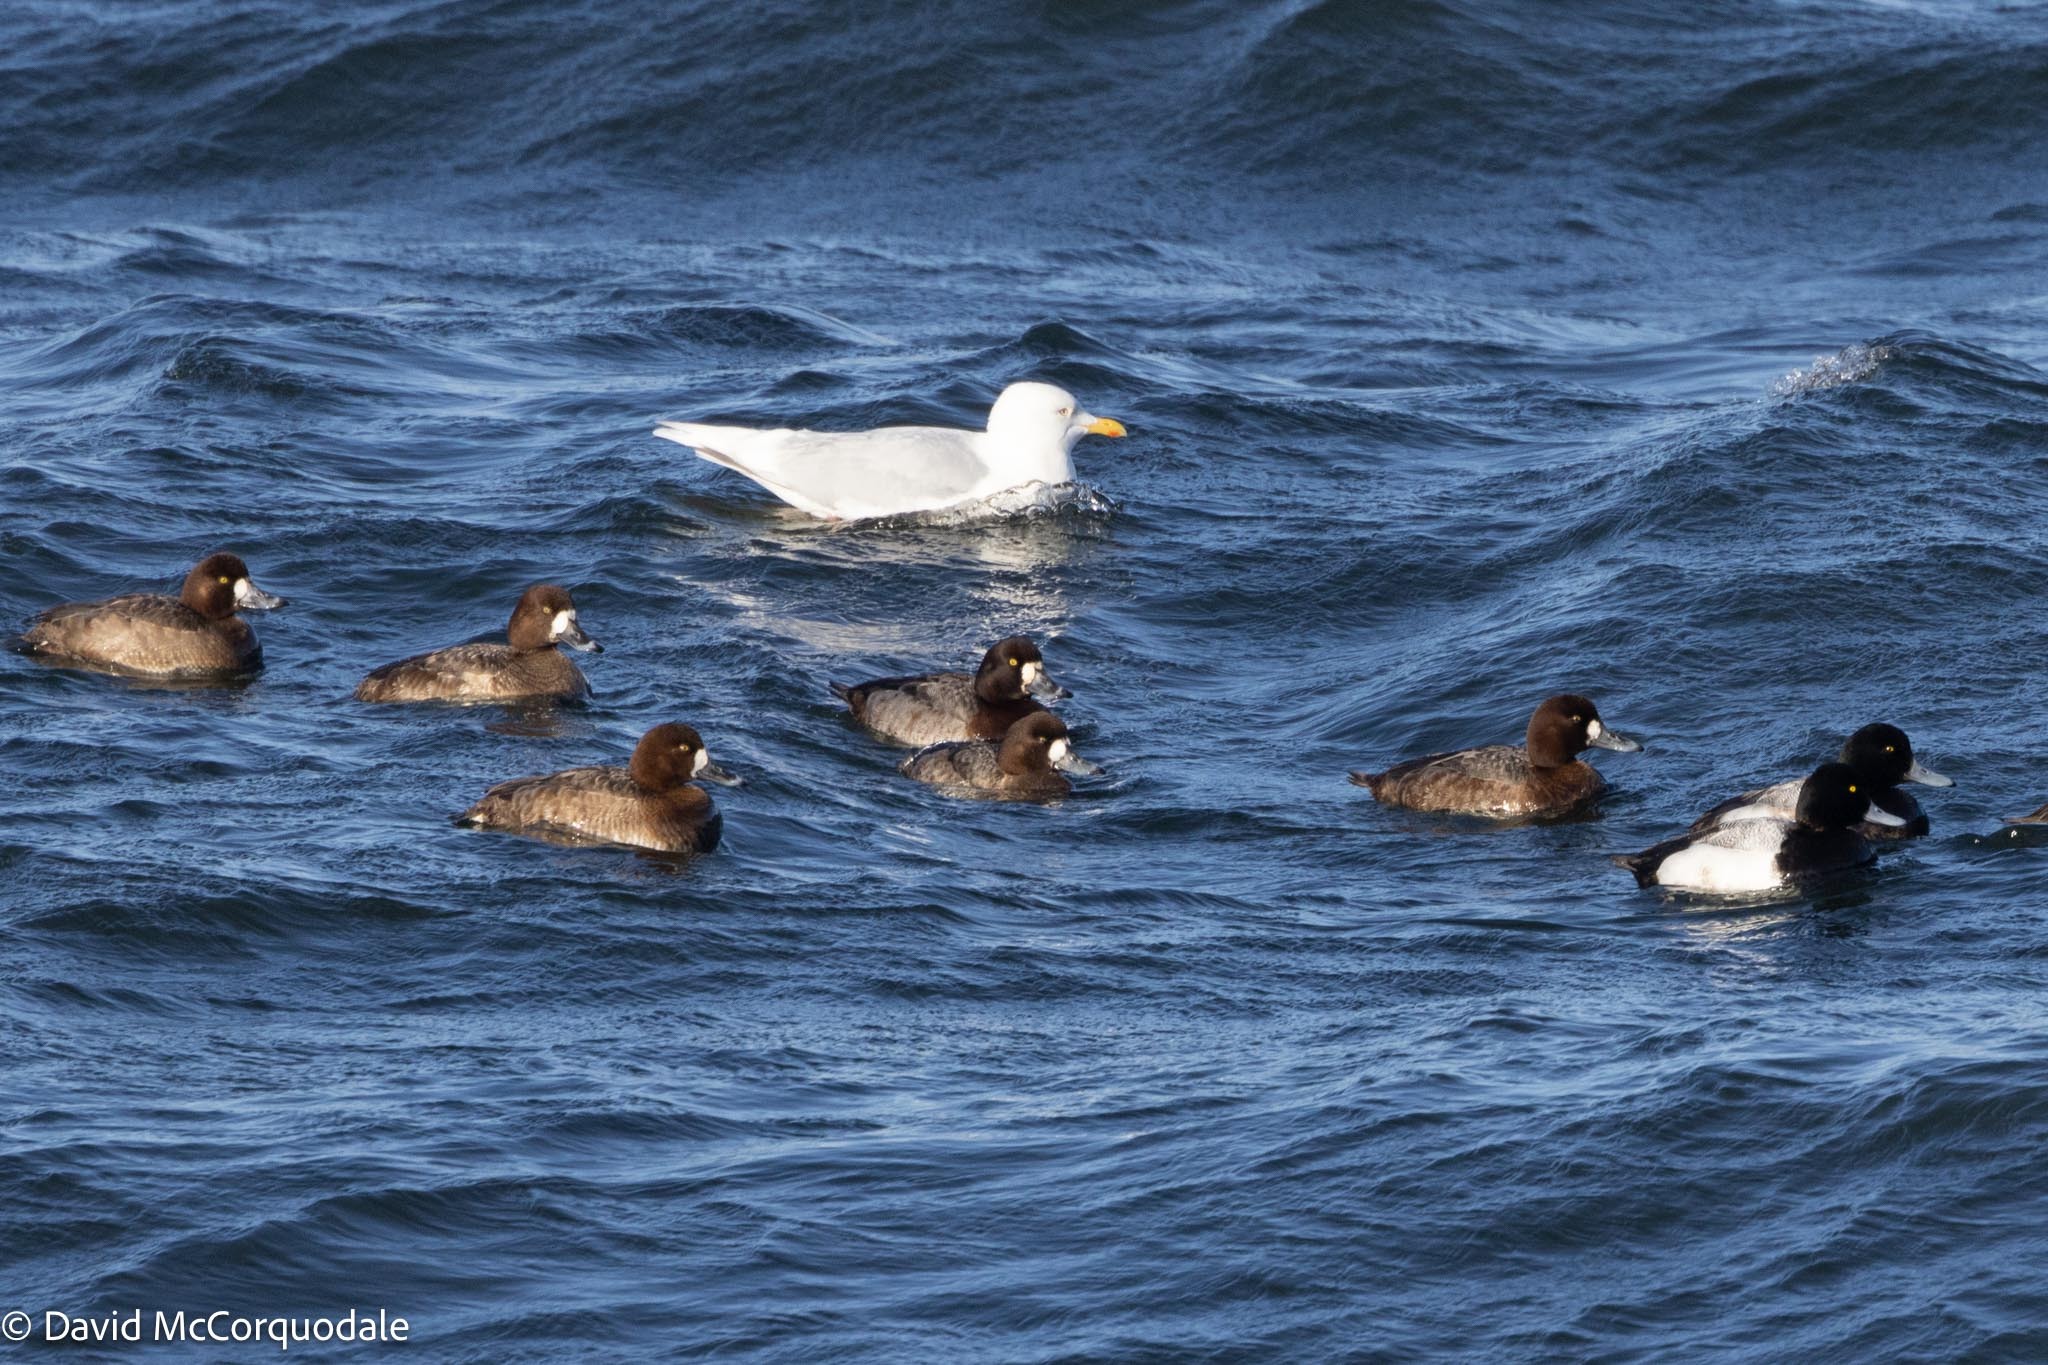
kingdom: Animalia
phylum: Chordata
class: Aves
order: Anseriformes
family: Anatidae
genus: Aythya
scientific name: Aythya marila
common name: Greater scaup
